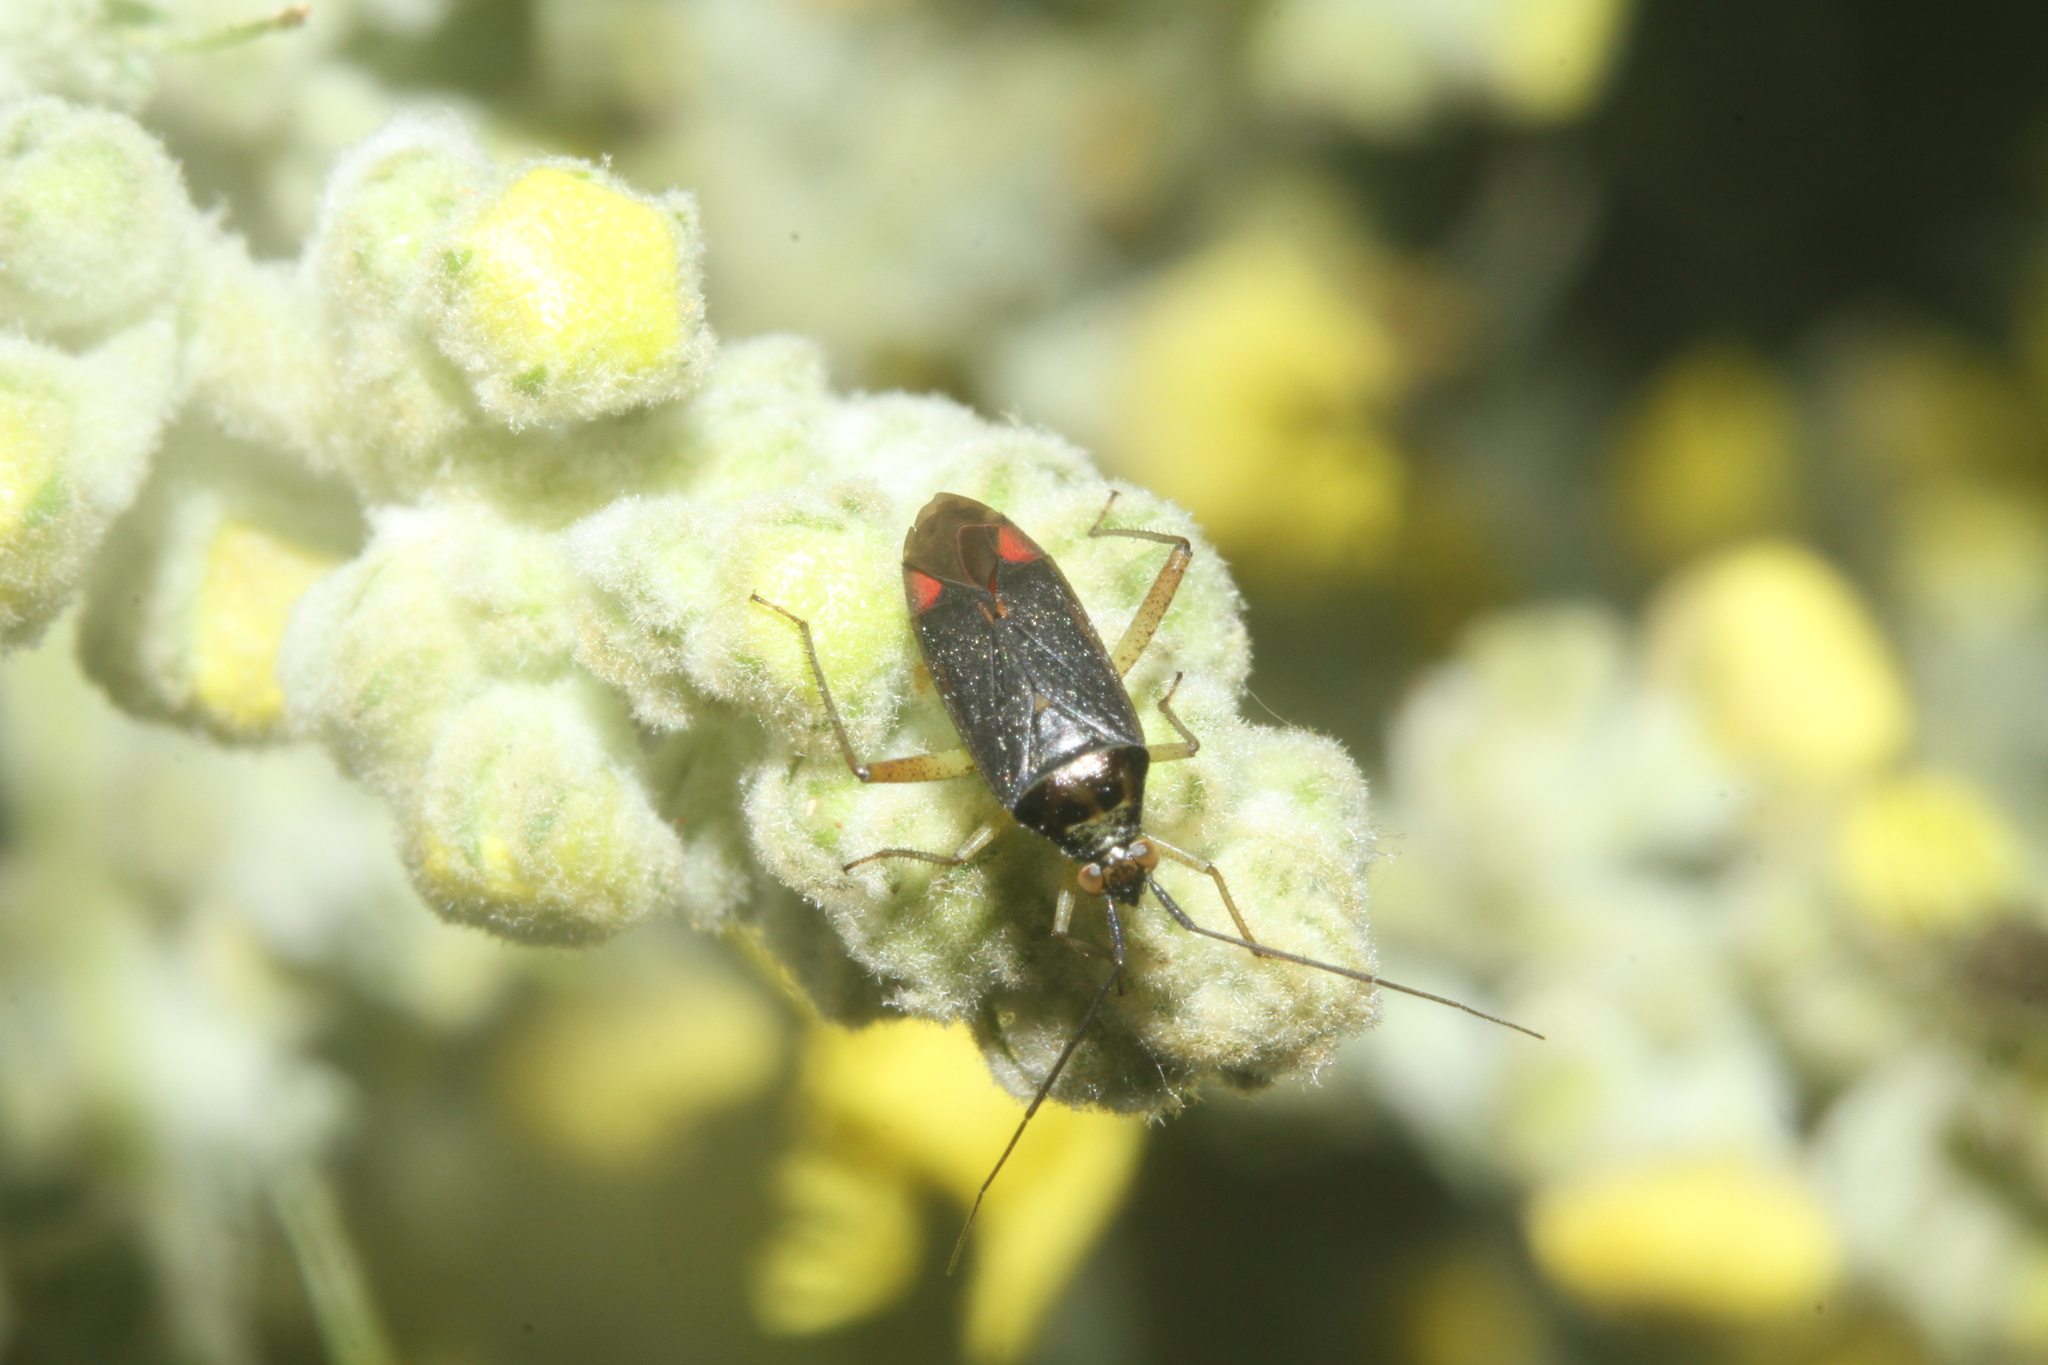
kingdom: Animalia
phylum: Arthropoda
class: Insecta
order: Hemiptera
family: Miridae
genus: Closterotomus
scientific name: Closterotomus trivialis
